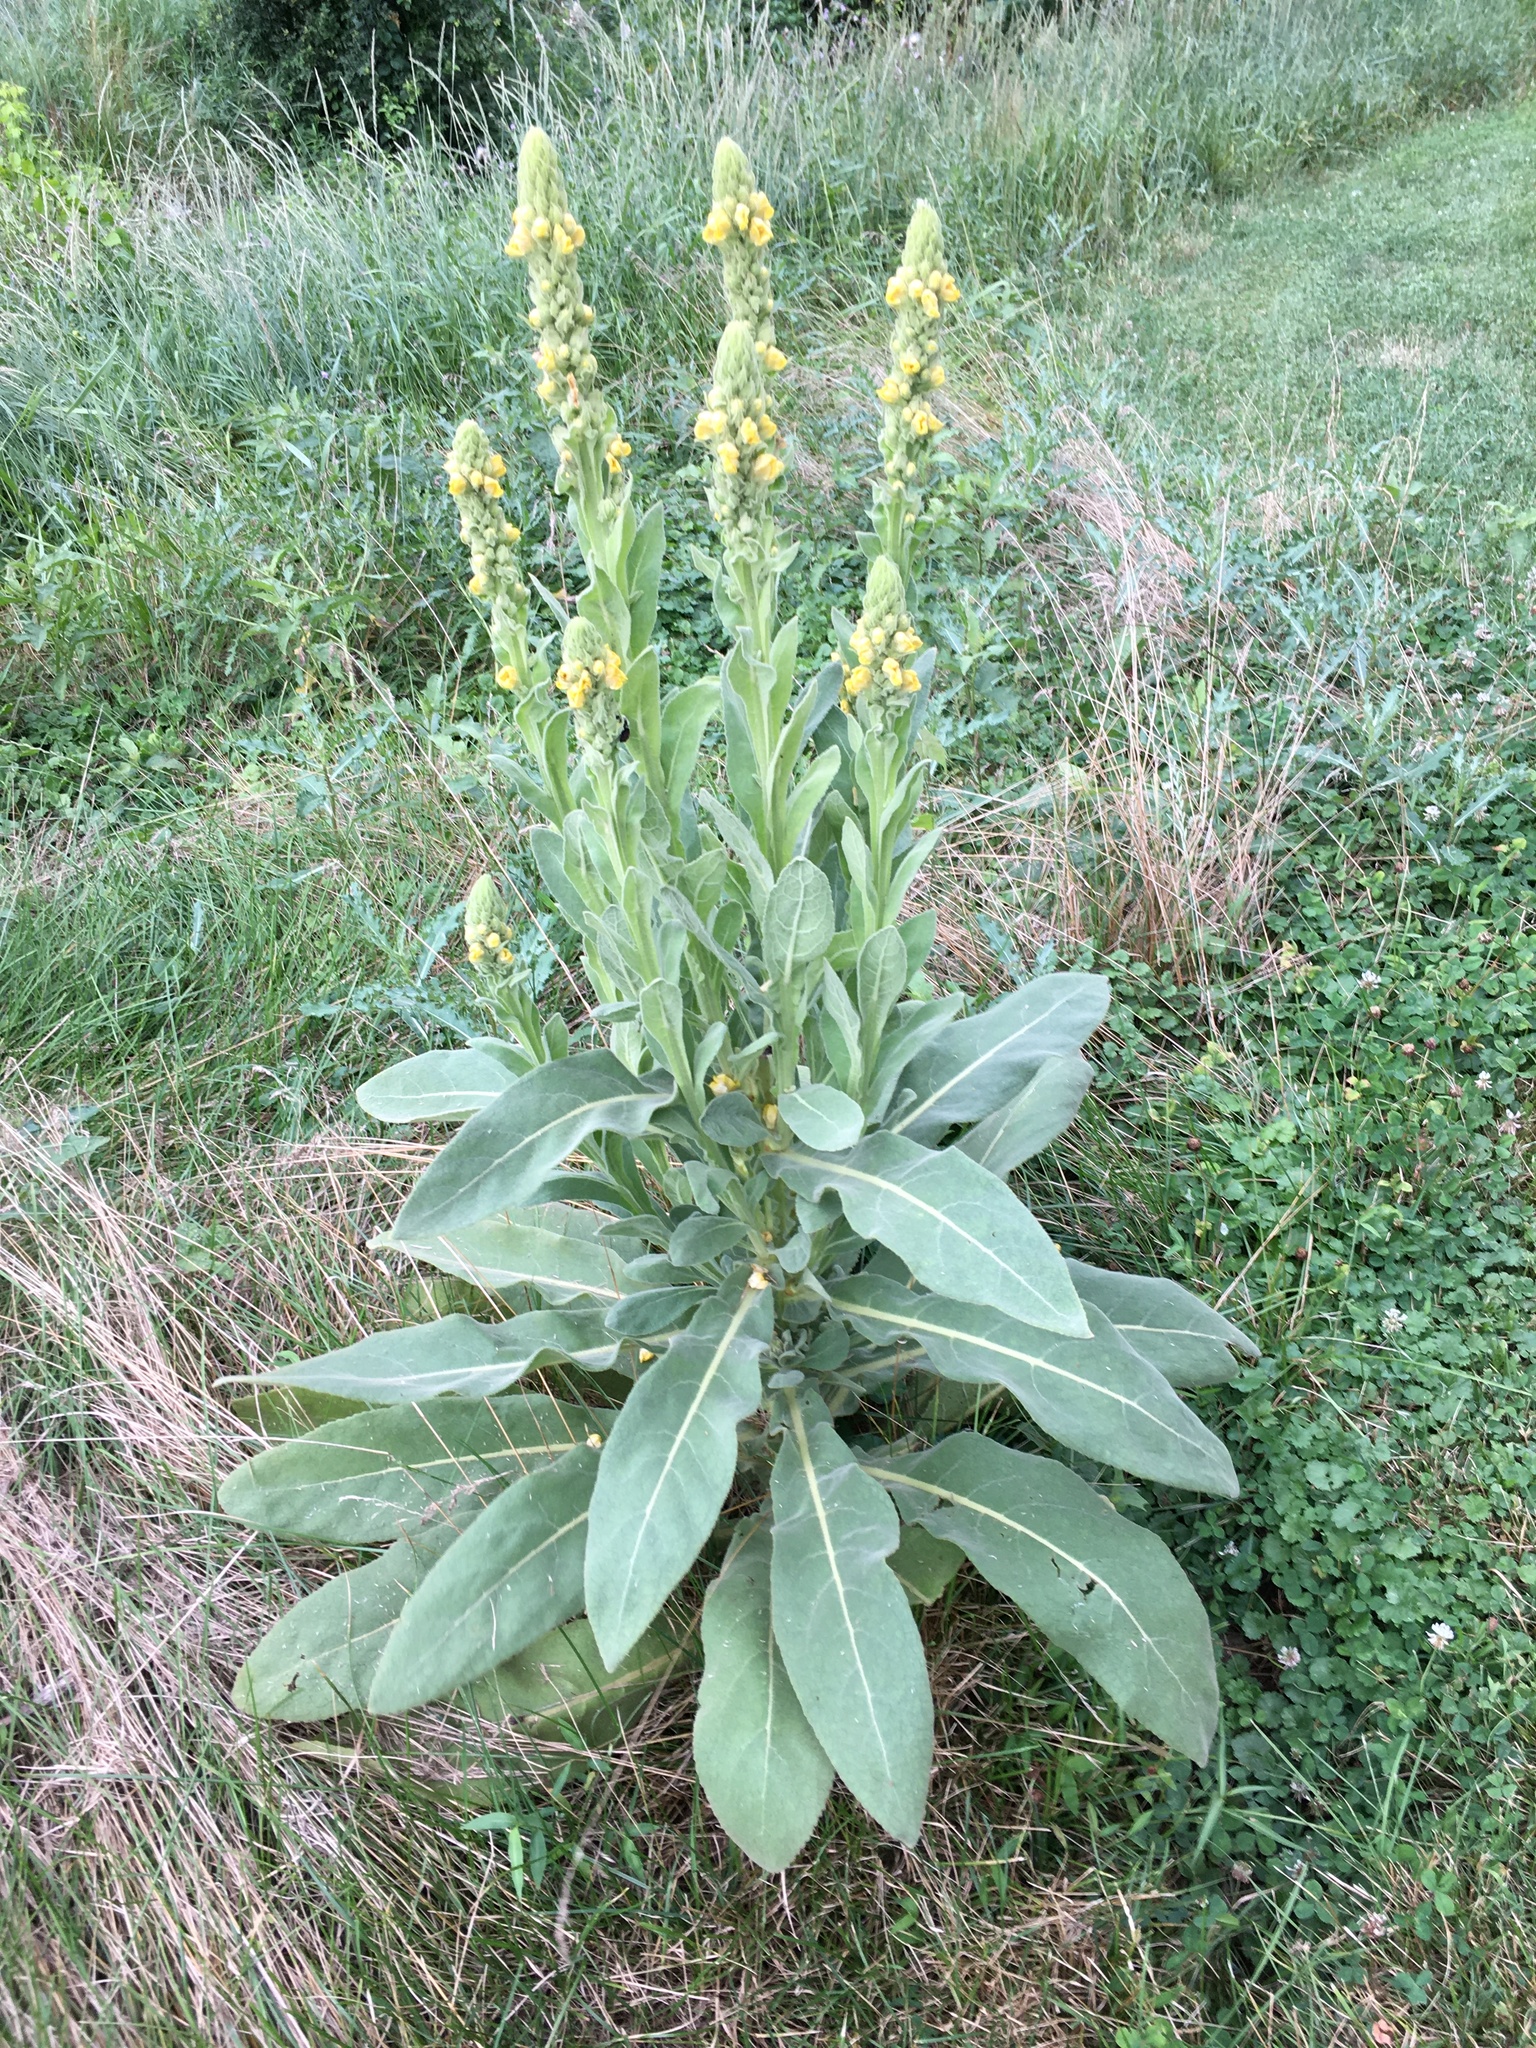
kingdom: Plantae
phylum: Tracheophyta
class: Magnoliopsida
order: Lamiales
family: Scrophulariaceae
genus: Verbascum
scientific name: Verbascum thapsus
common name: Common mullein
